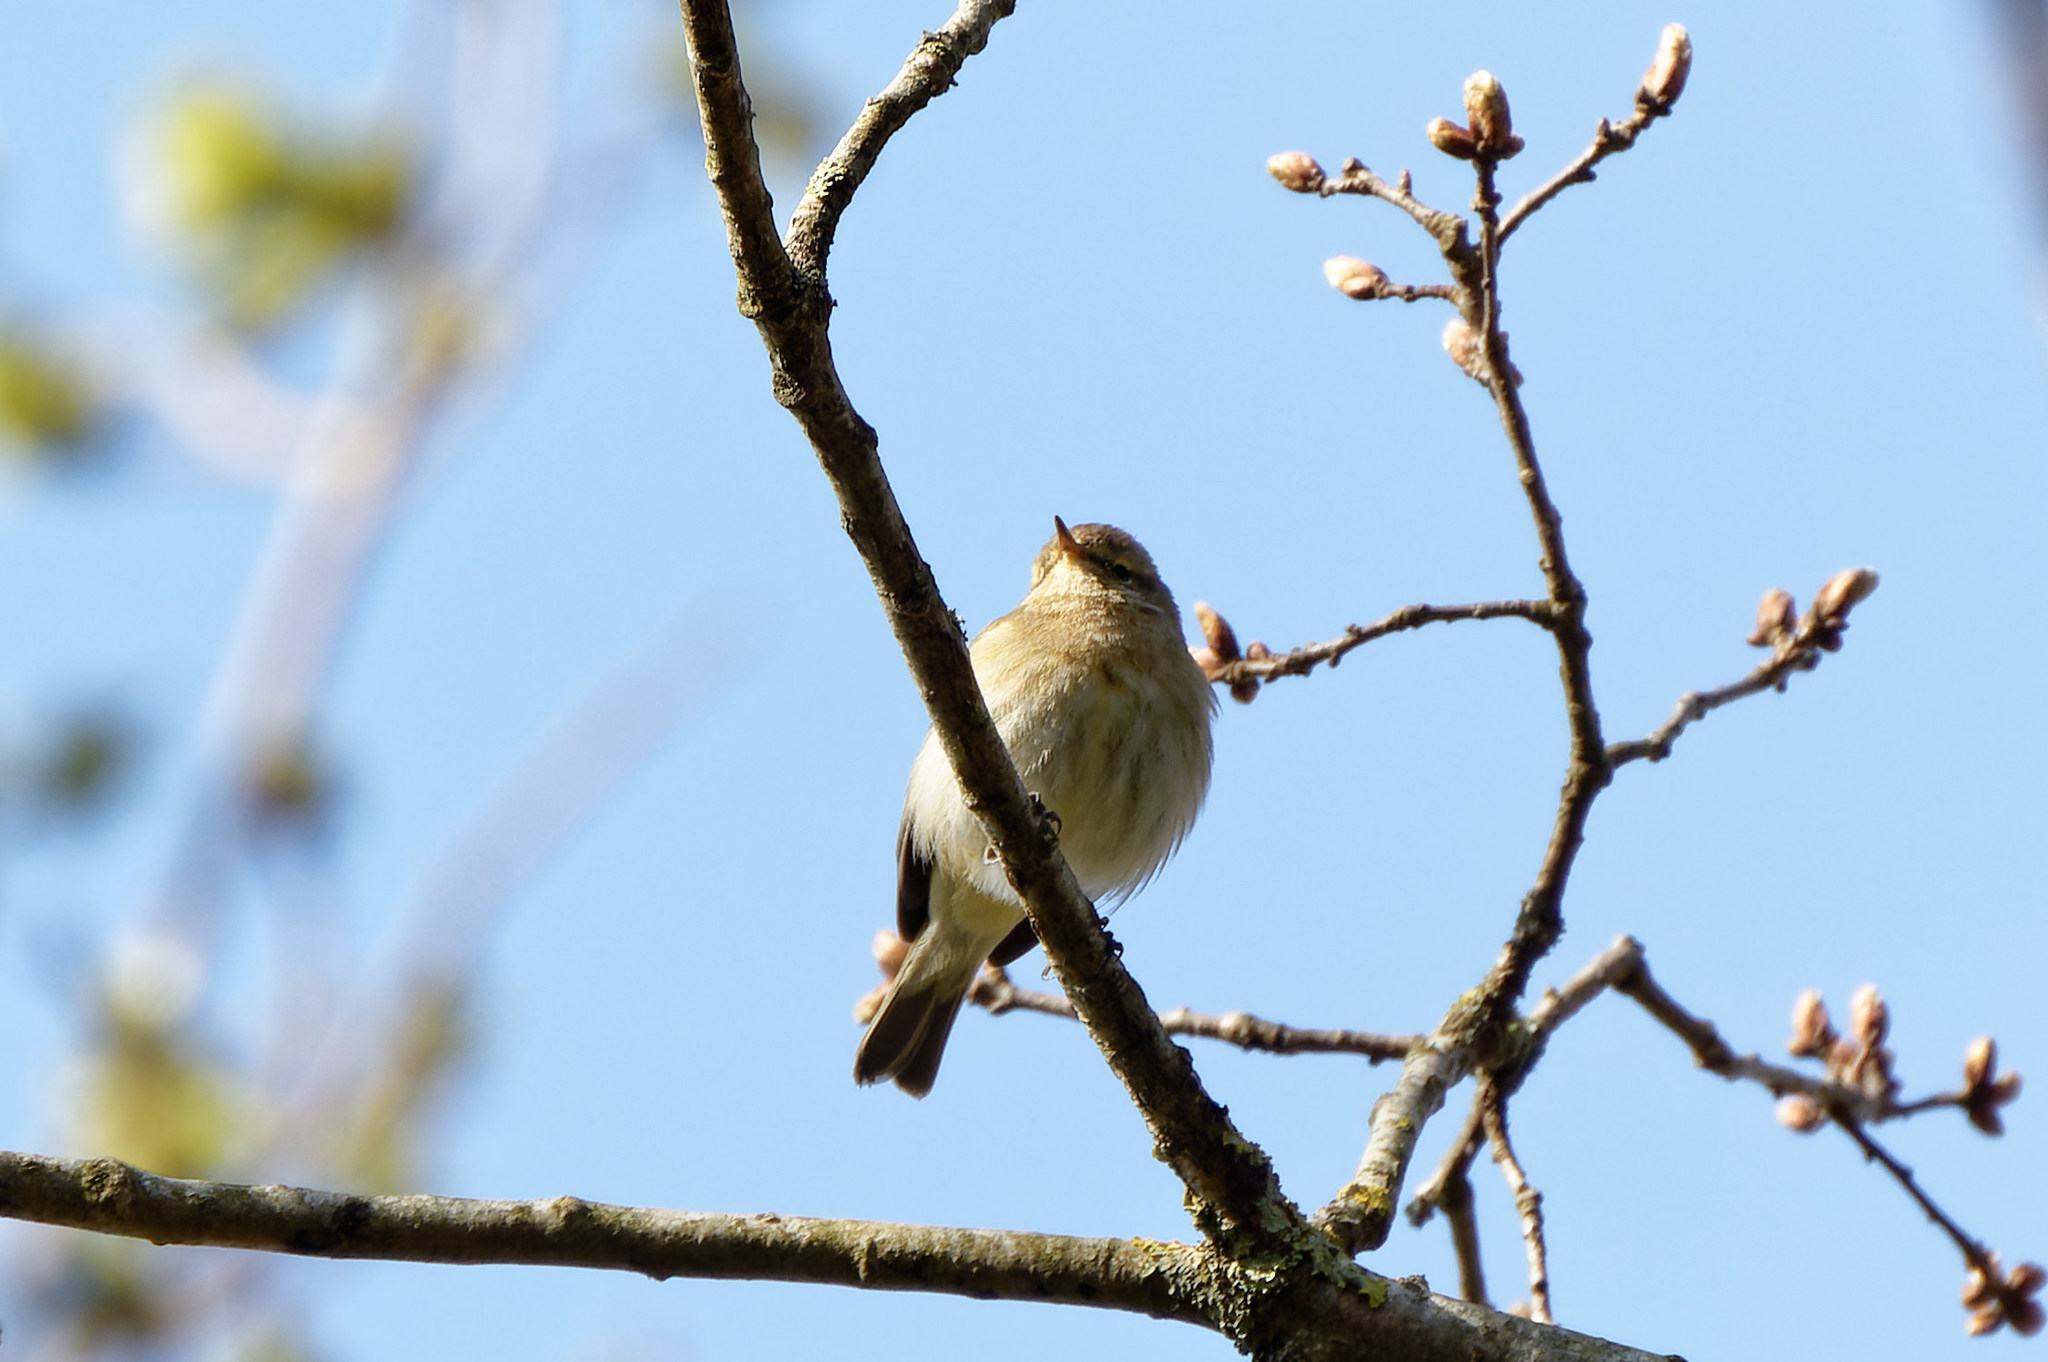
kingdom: Animalia
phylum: Chordata
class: Aves
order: Passeriformes
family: Phylloscopidae
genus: Phylloscopus
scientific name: Phylloscopus collybita
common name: Common chiffchaff
